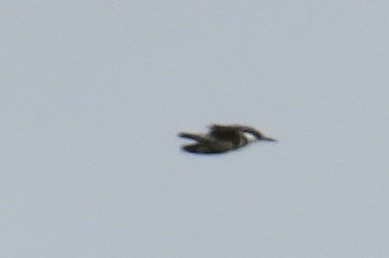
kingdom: Animalia
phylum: Chordata
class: Aves
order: Coraciiformes
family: Alcedinidae
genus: Megaceryle
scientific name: Megaceryle alcyon
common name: Belted kingfisher
